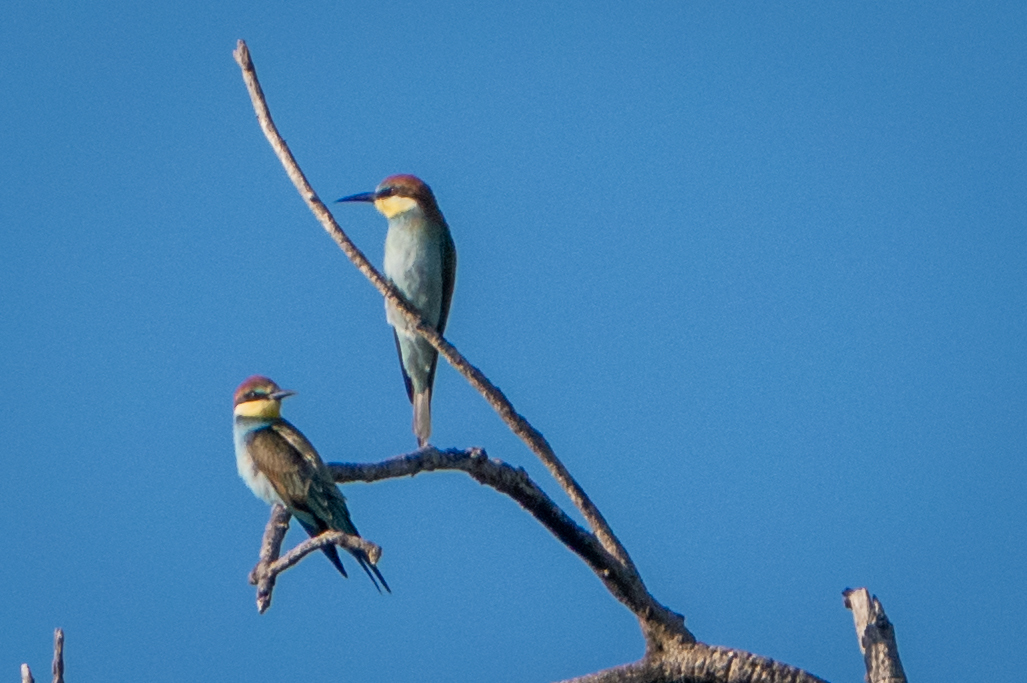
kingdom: Animalia
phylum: Chordata
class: Aves
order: Coraciiformes
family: Meropidae
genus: Merops
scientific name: Merops apiaster
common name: European bee-eater
